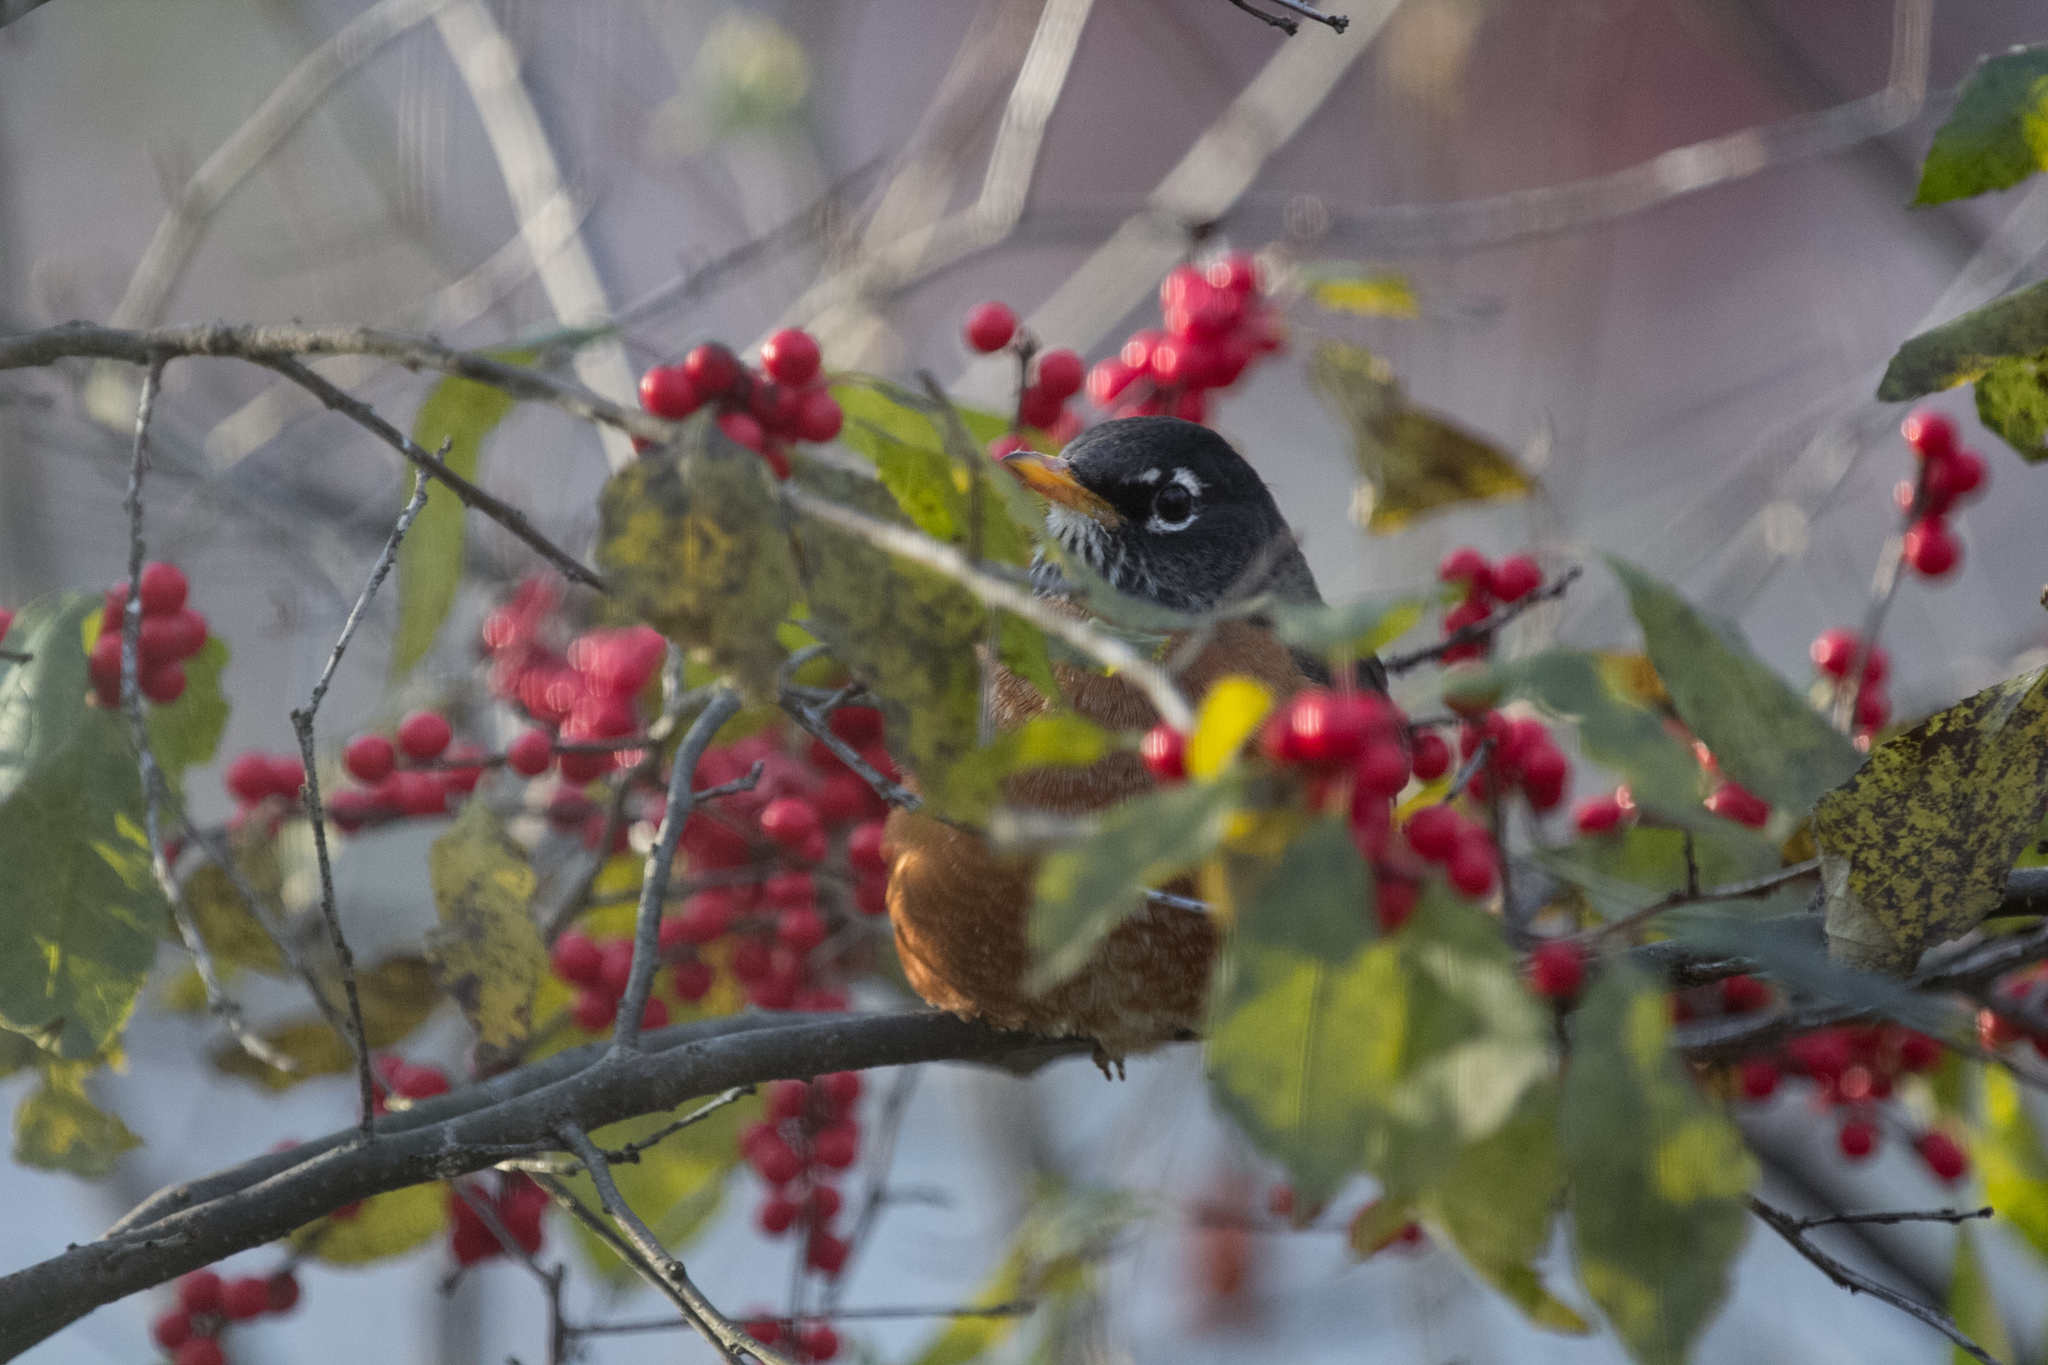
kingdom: Animalia
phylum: Chordata
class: Aves
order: Passeriformes
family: Turdidae
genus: Turdus
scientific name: Turdus migratorius
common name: American robin
